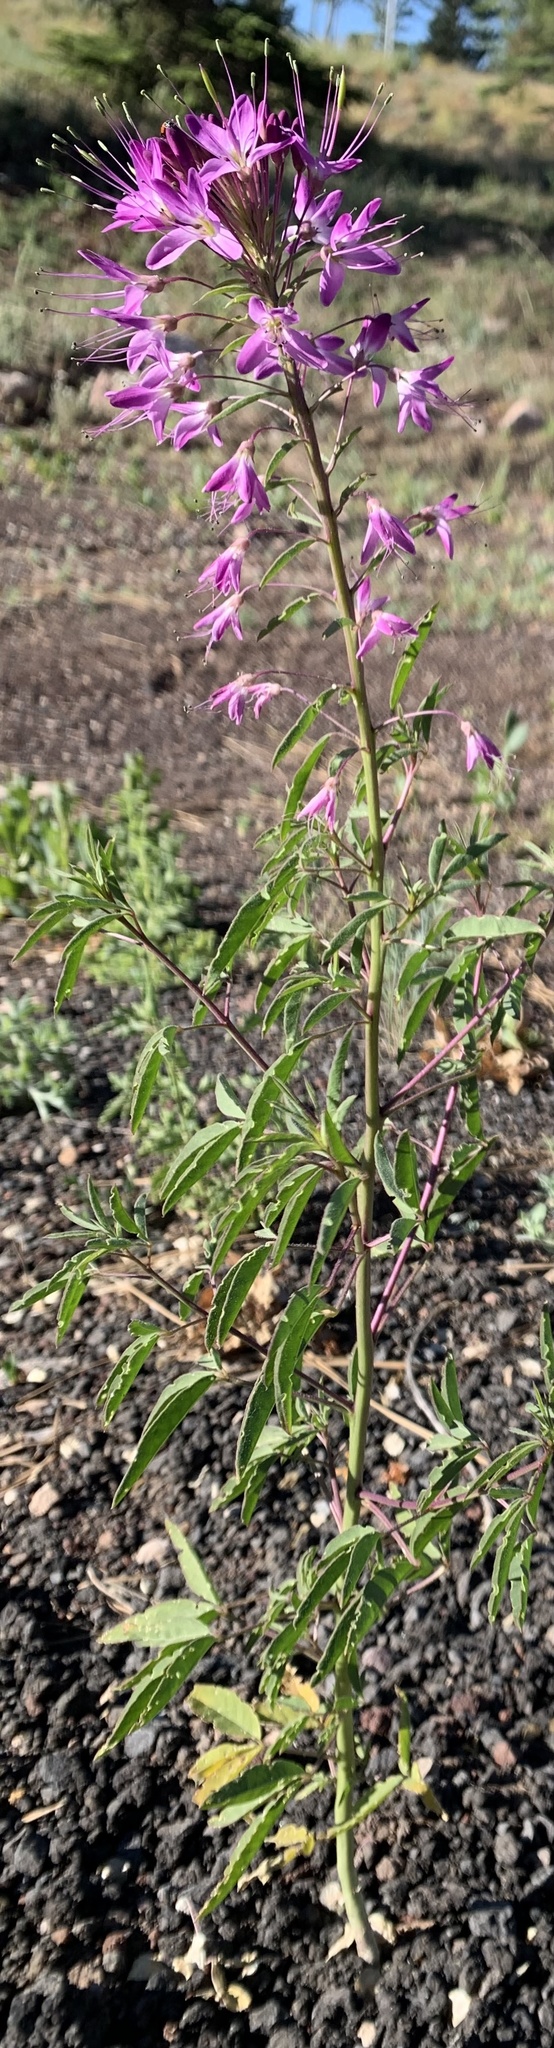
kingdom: Plantae
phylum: Tracheophyta
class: Magnoliopsida
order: Brassicales
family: Cleomaceae
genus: Cleomella
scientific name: Cleomella serrulata
